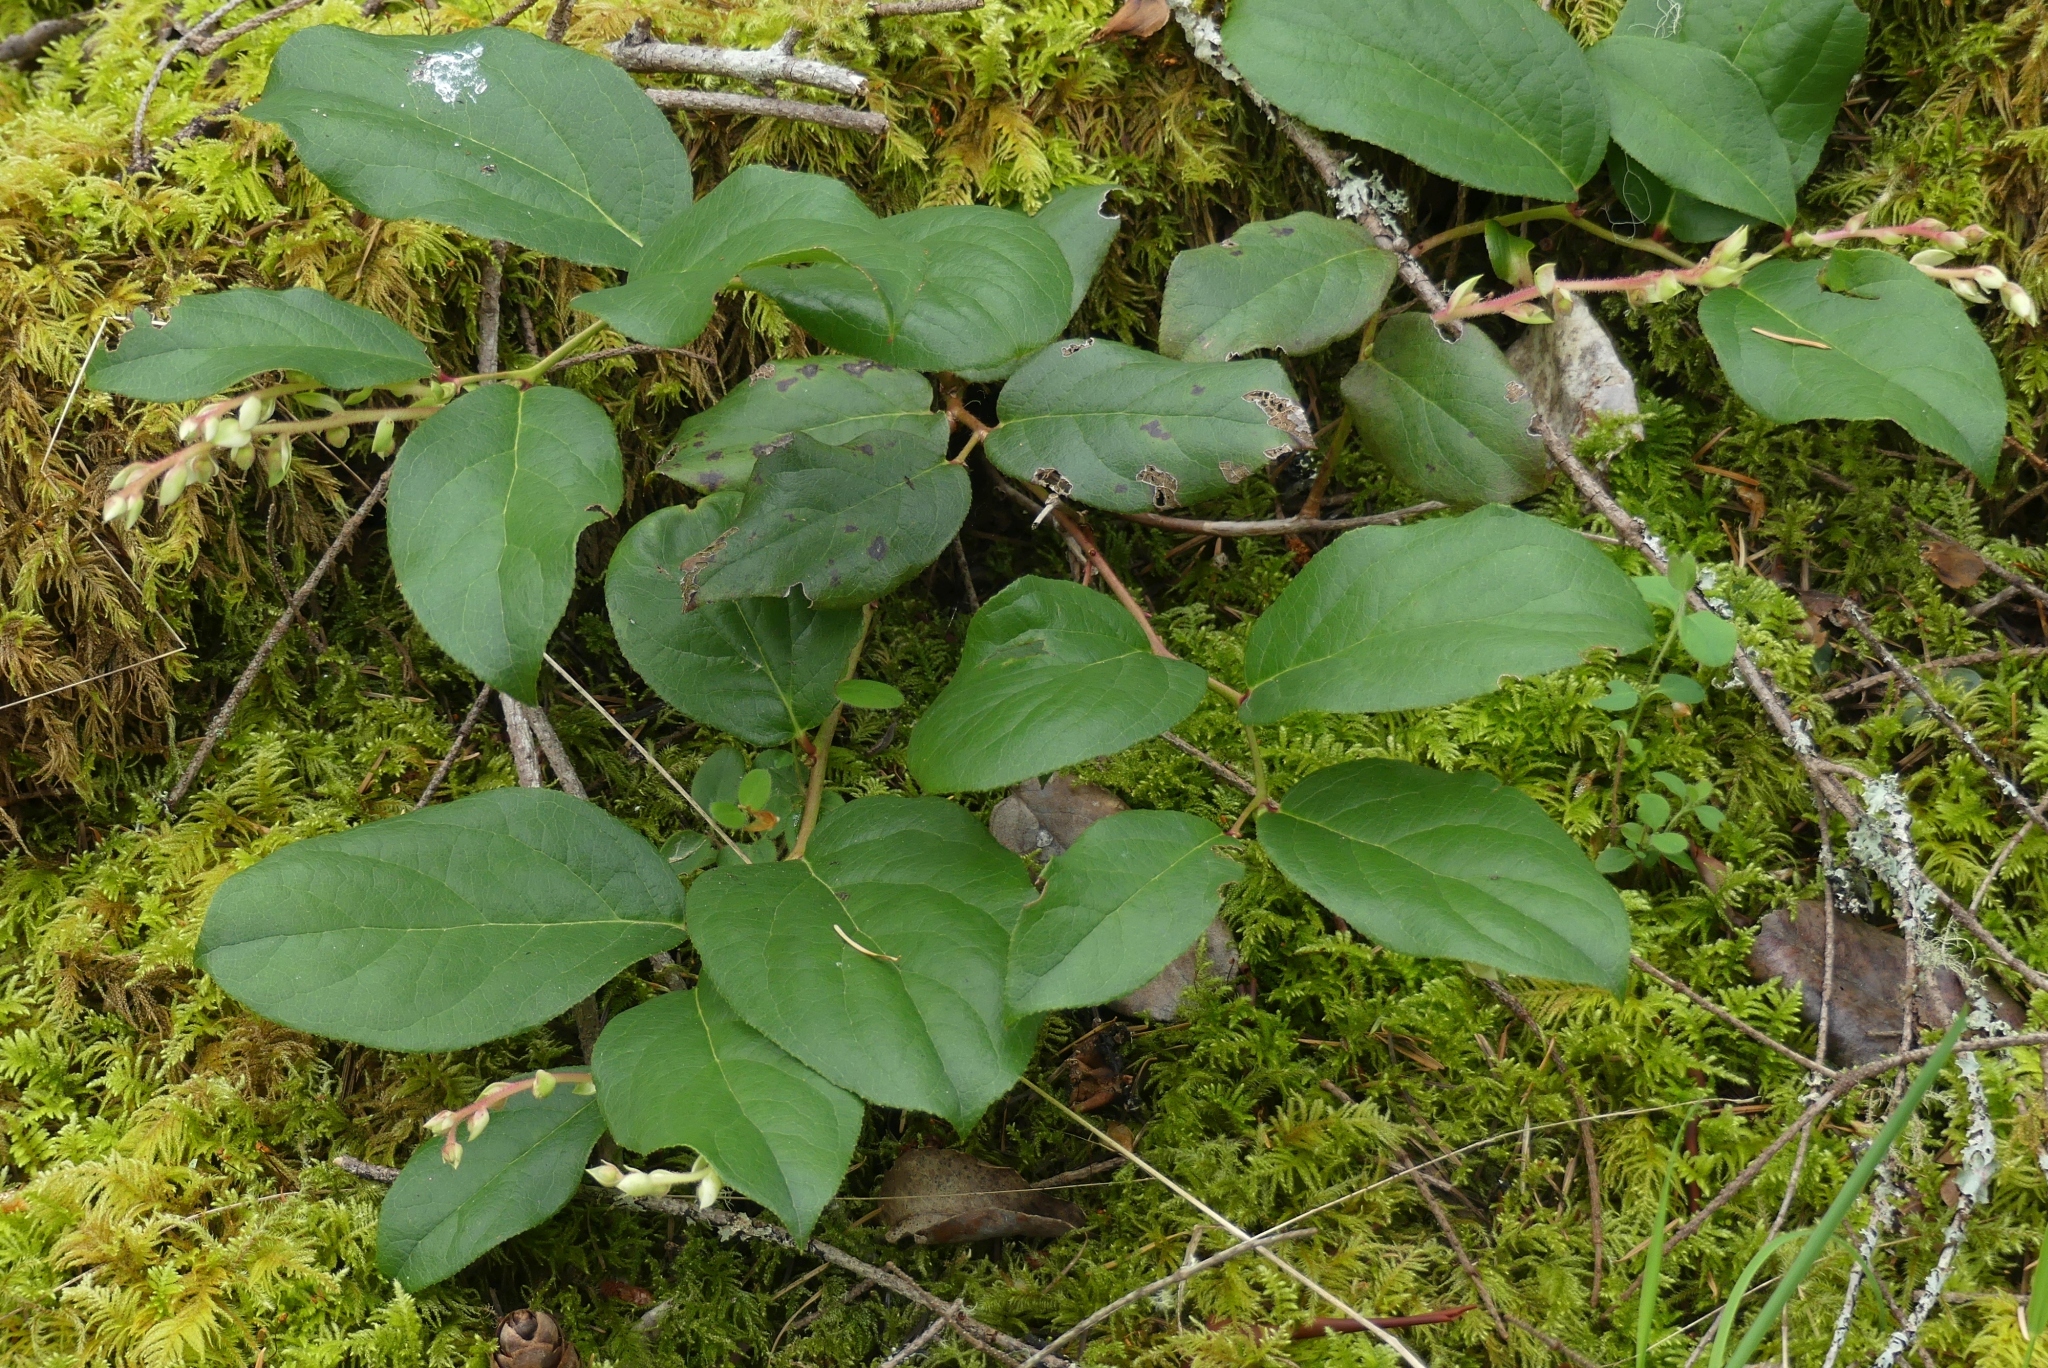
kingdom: Plantae
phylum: Tracheophyta
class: Magnoliopsida
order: Ericales
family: Ericaceae
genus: Gaultheria
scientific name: Gaultheria shallon
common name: Shallon
